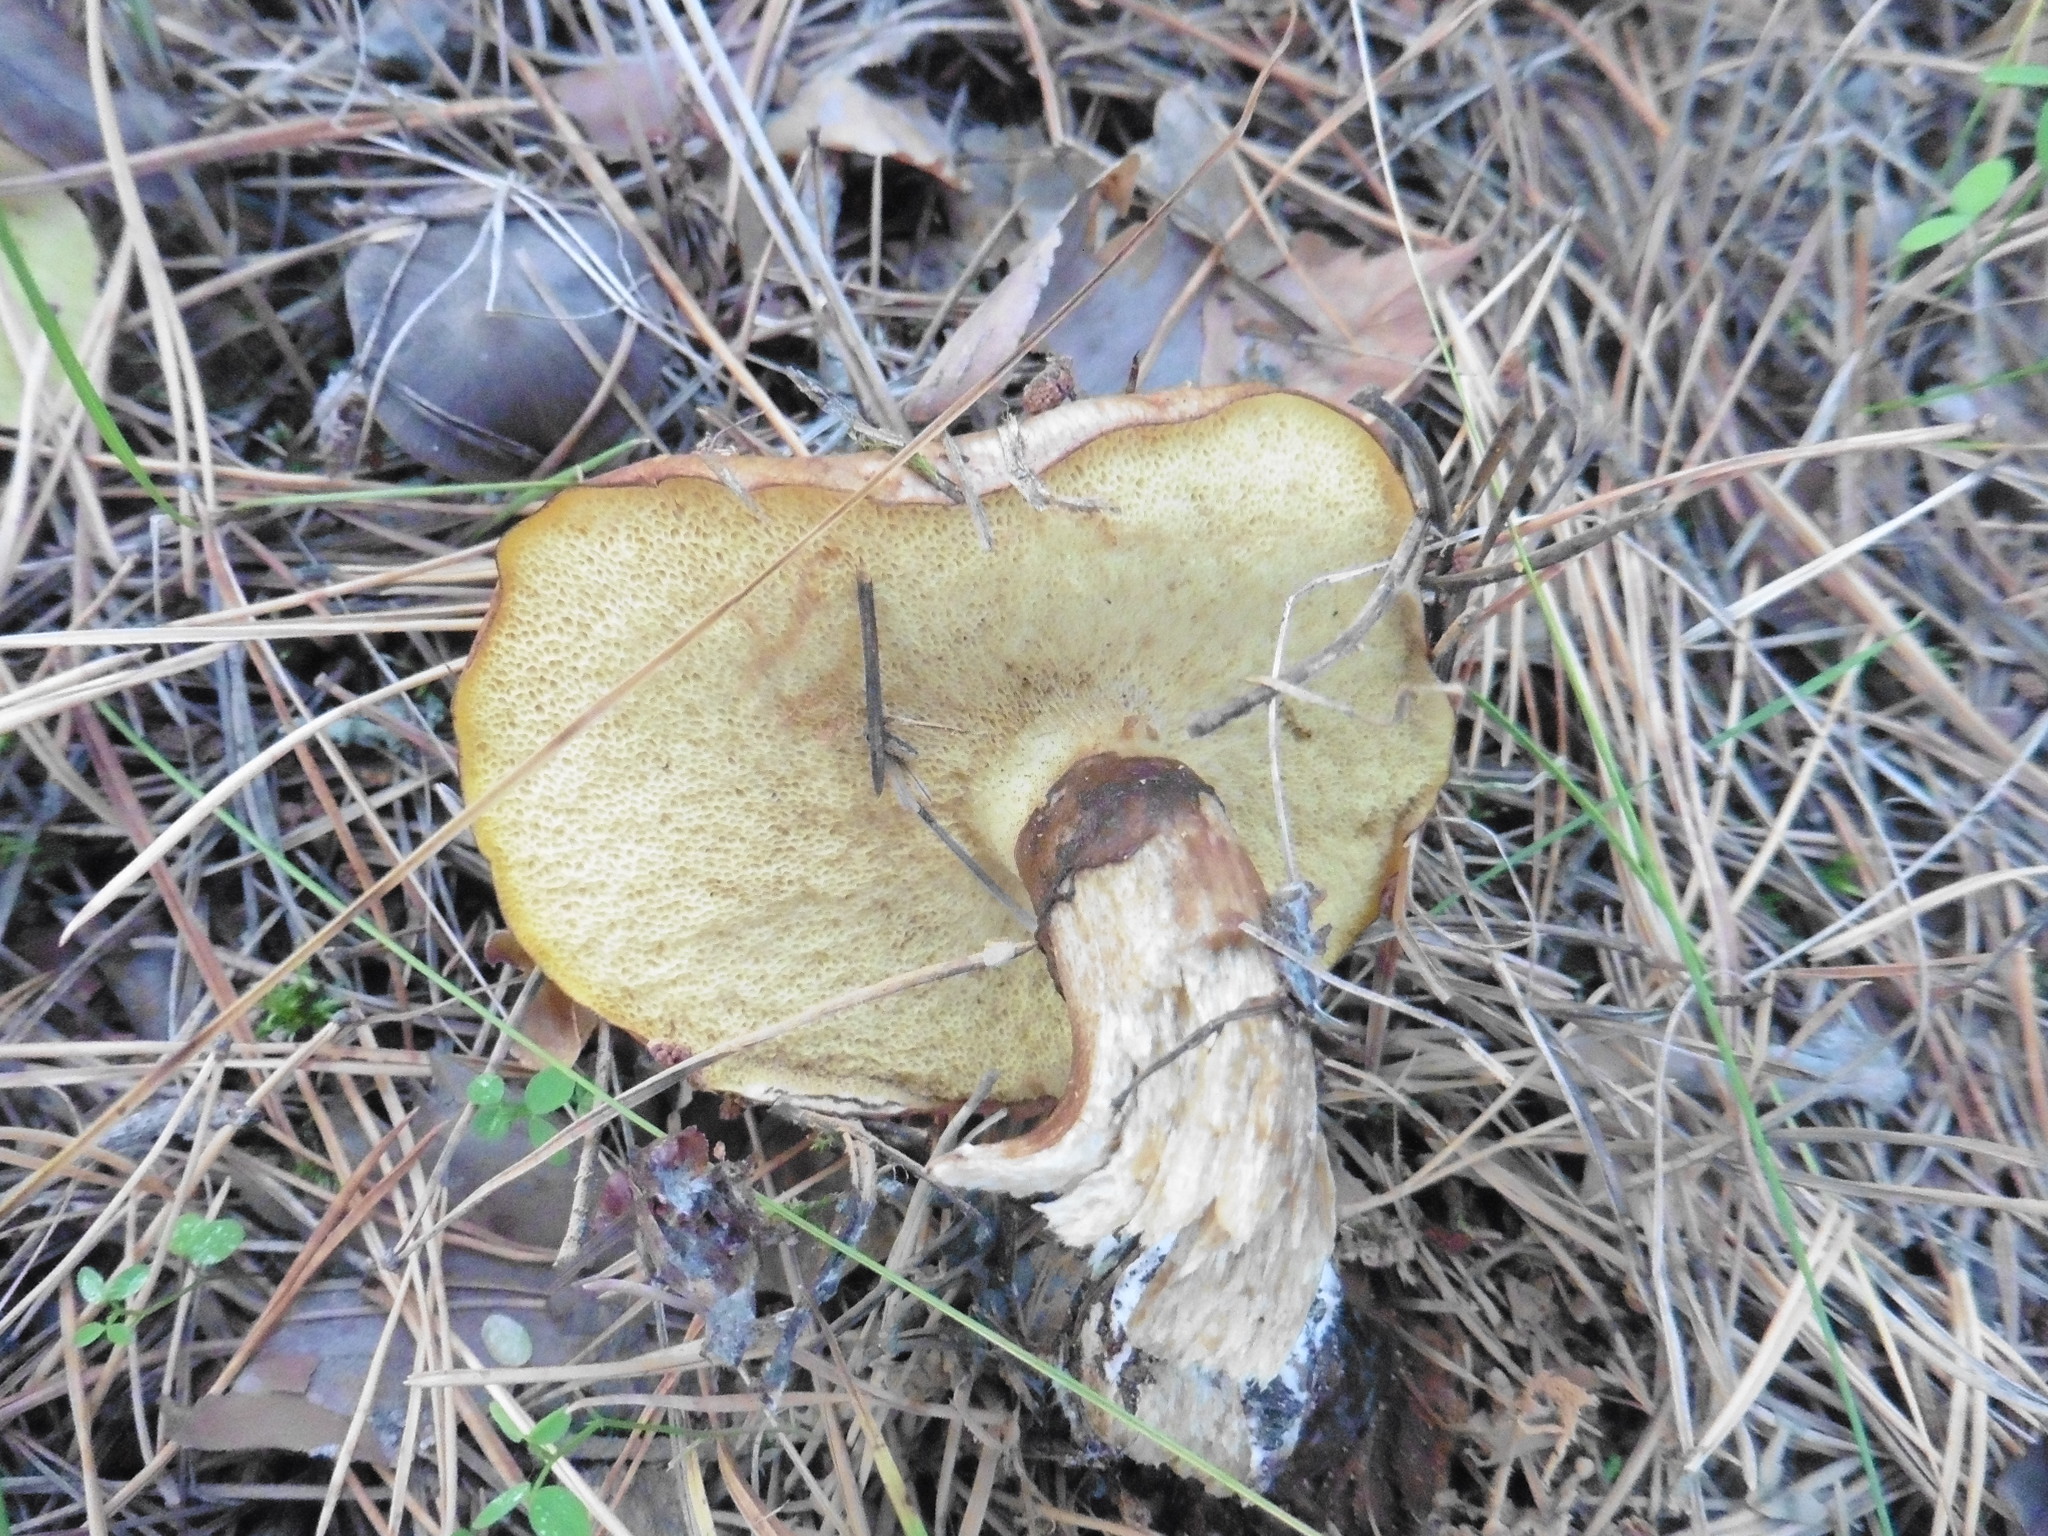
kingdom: Fungi
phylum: Basidiomycota
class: Agaricomycetes
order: Boletales
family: Suillaceae
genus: Suillus
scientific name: Suillus luteus
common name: Slippery jack
